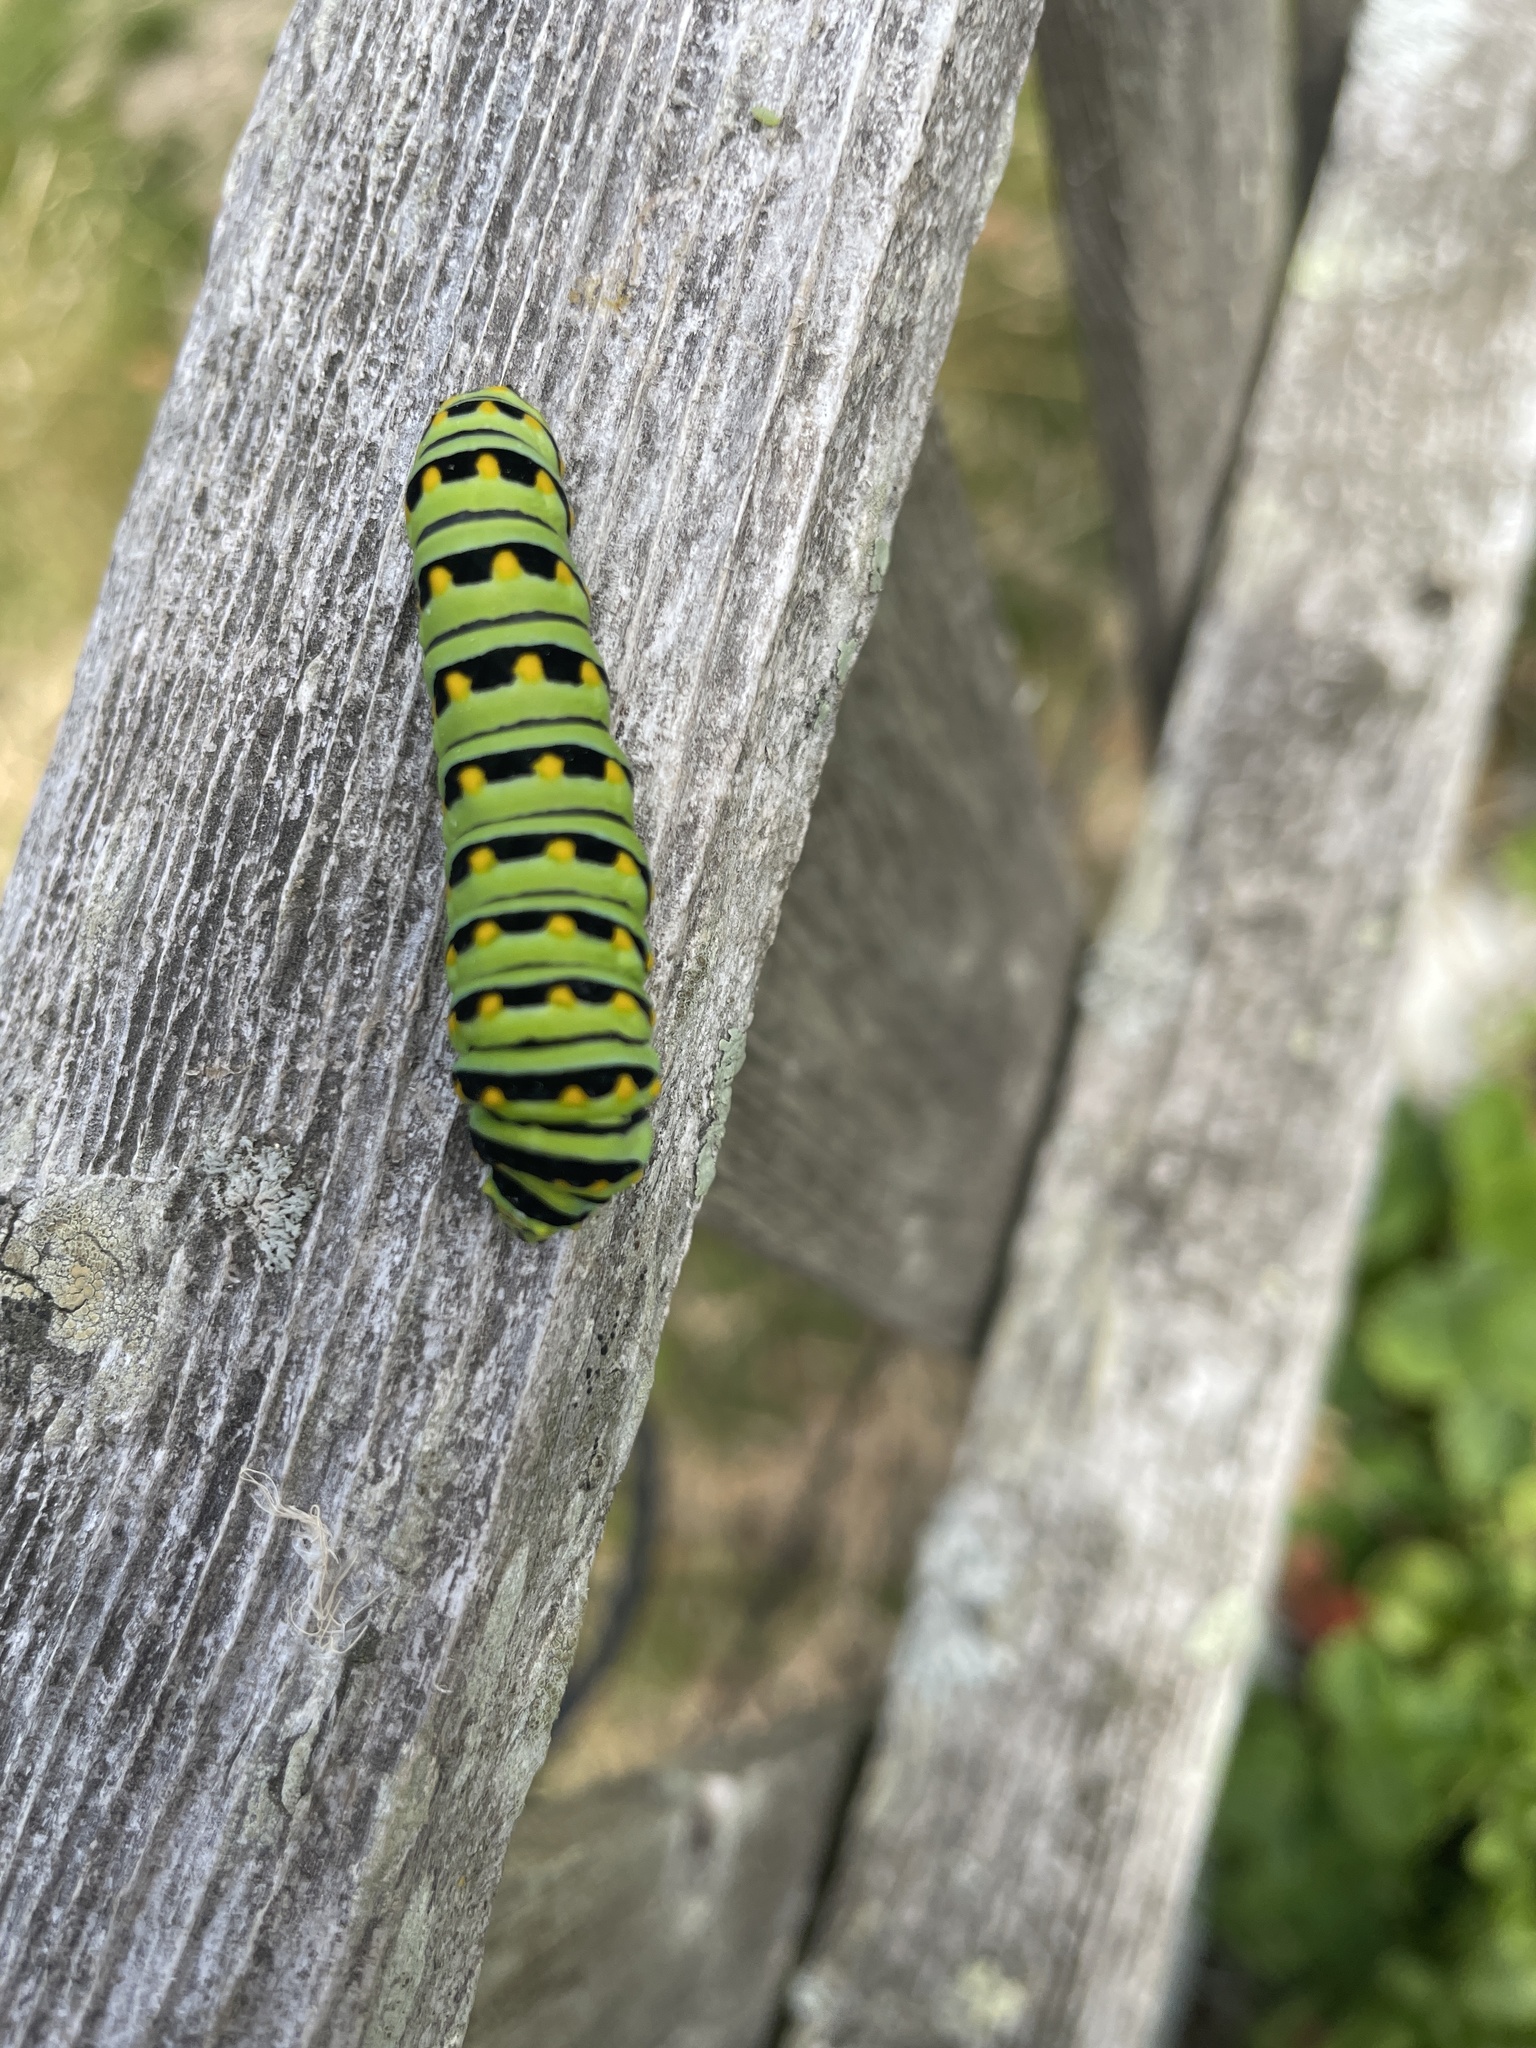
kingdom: Animalia
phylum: Arthropoda
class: Insecta
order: Lepidoptera
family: Papilionidae
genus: Papilio
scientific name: Papilio polyxenes
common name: Black swallowtail
